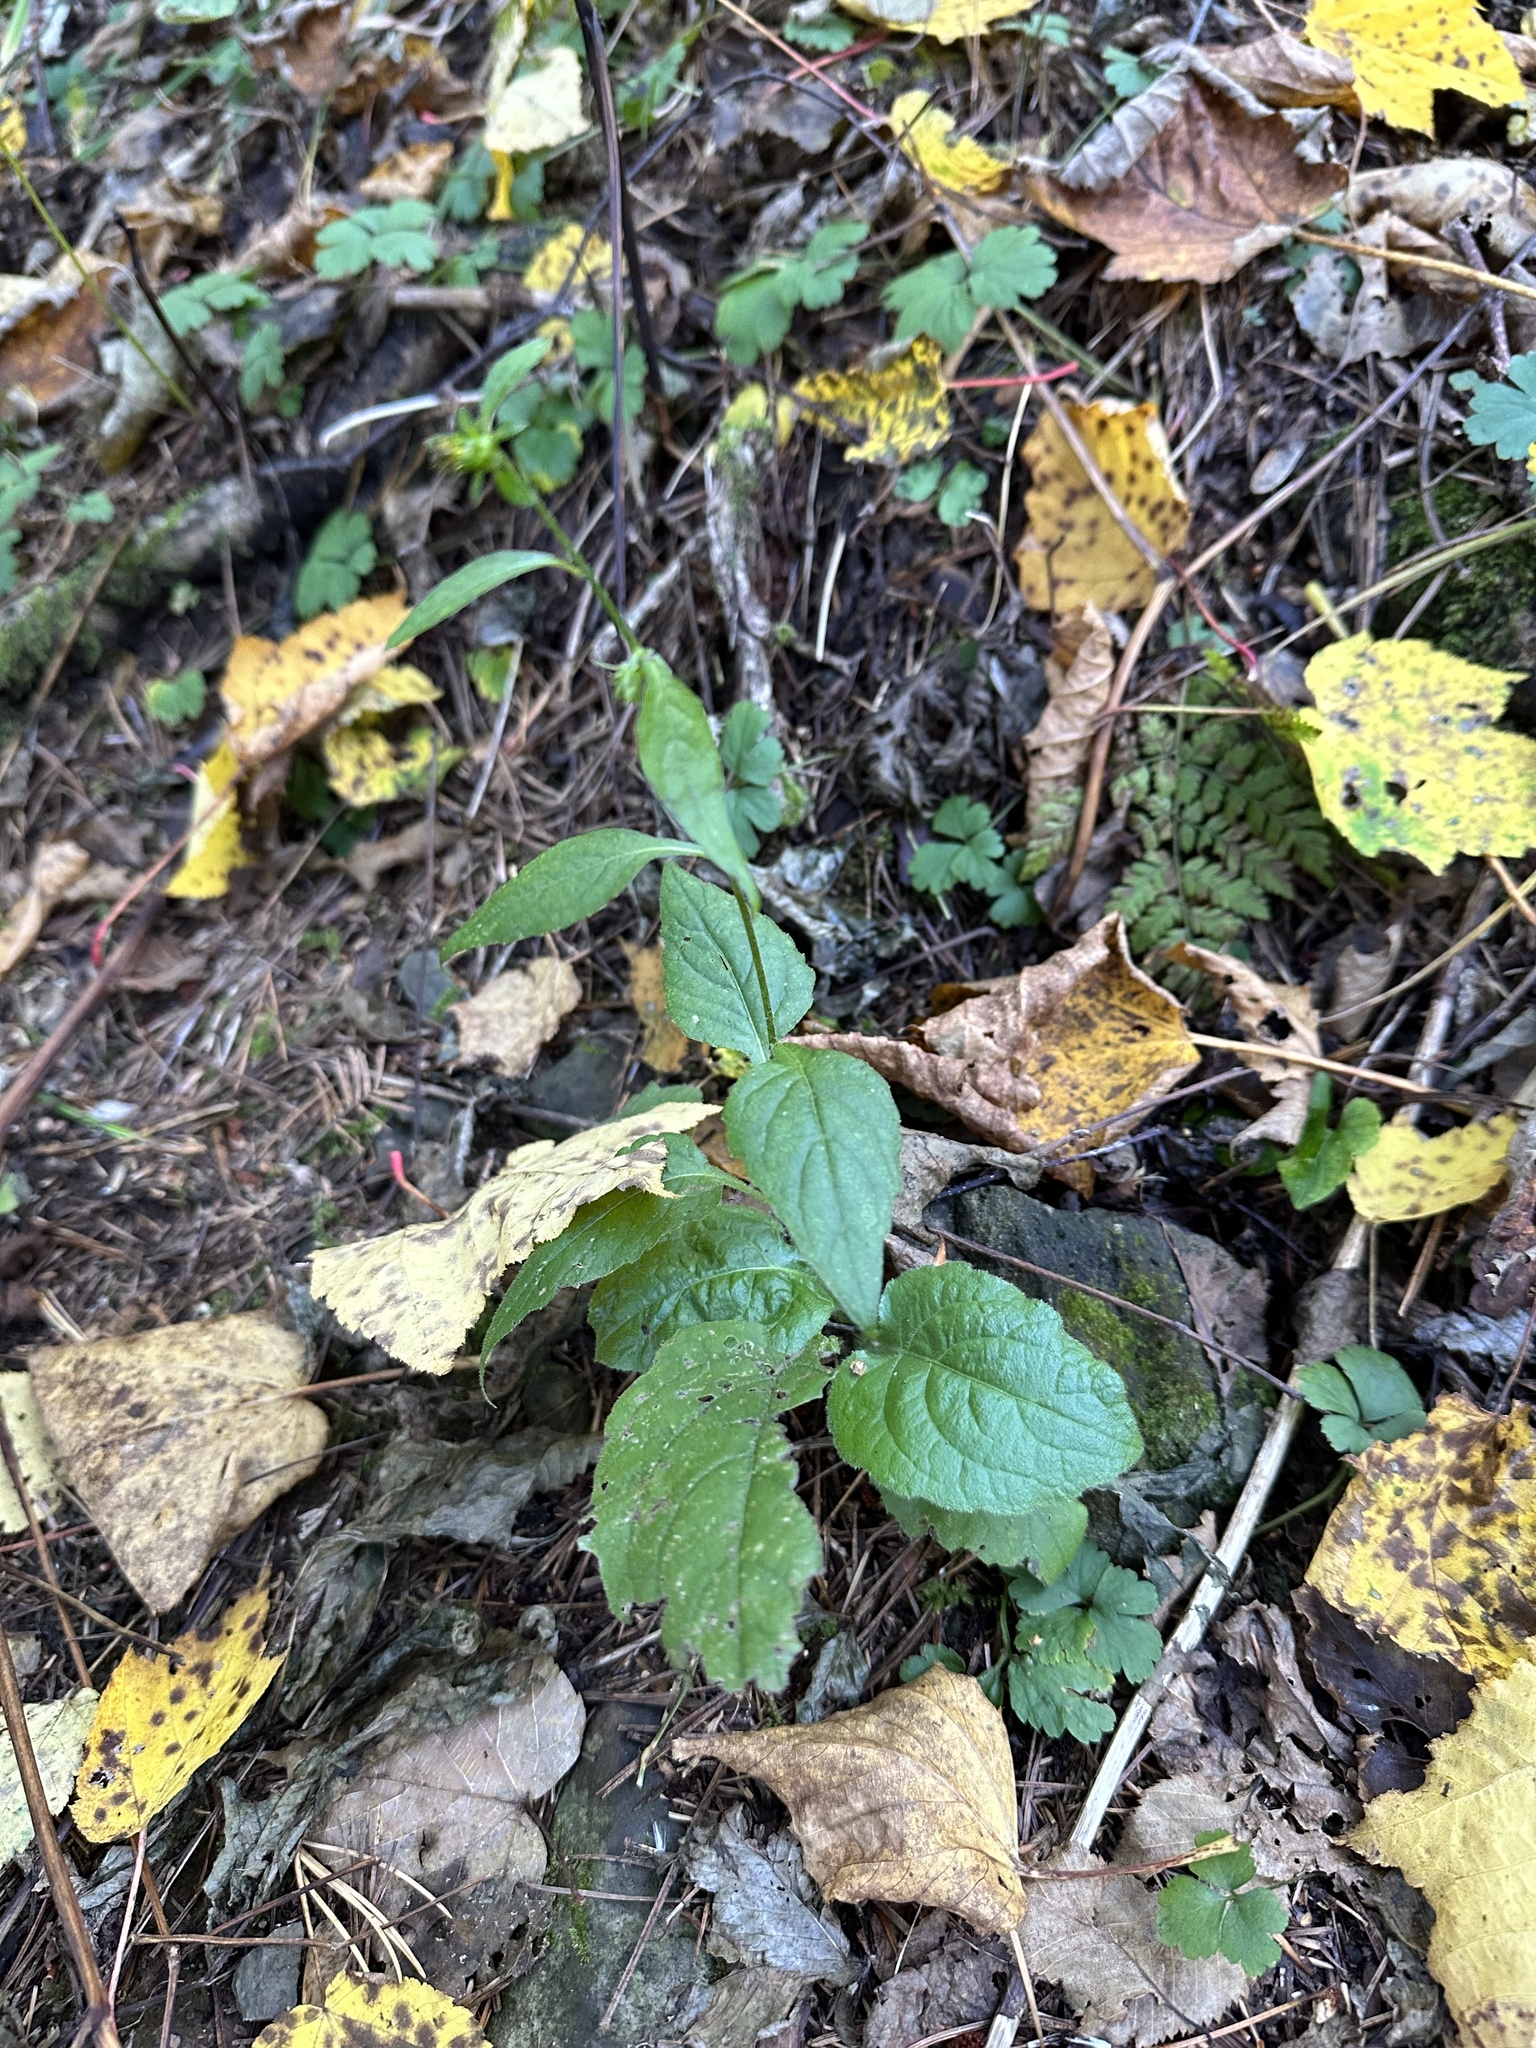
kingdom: Plantae
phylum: Tracheophyta
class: Magnoliopsida
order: Asterales
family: Asteraceae
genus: Carpesium
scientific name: Carpesium triste
